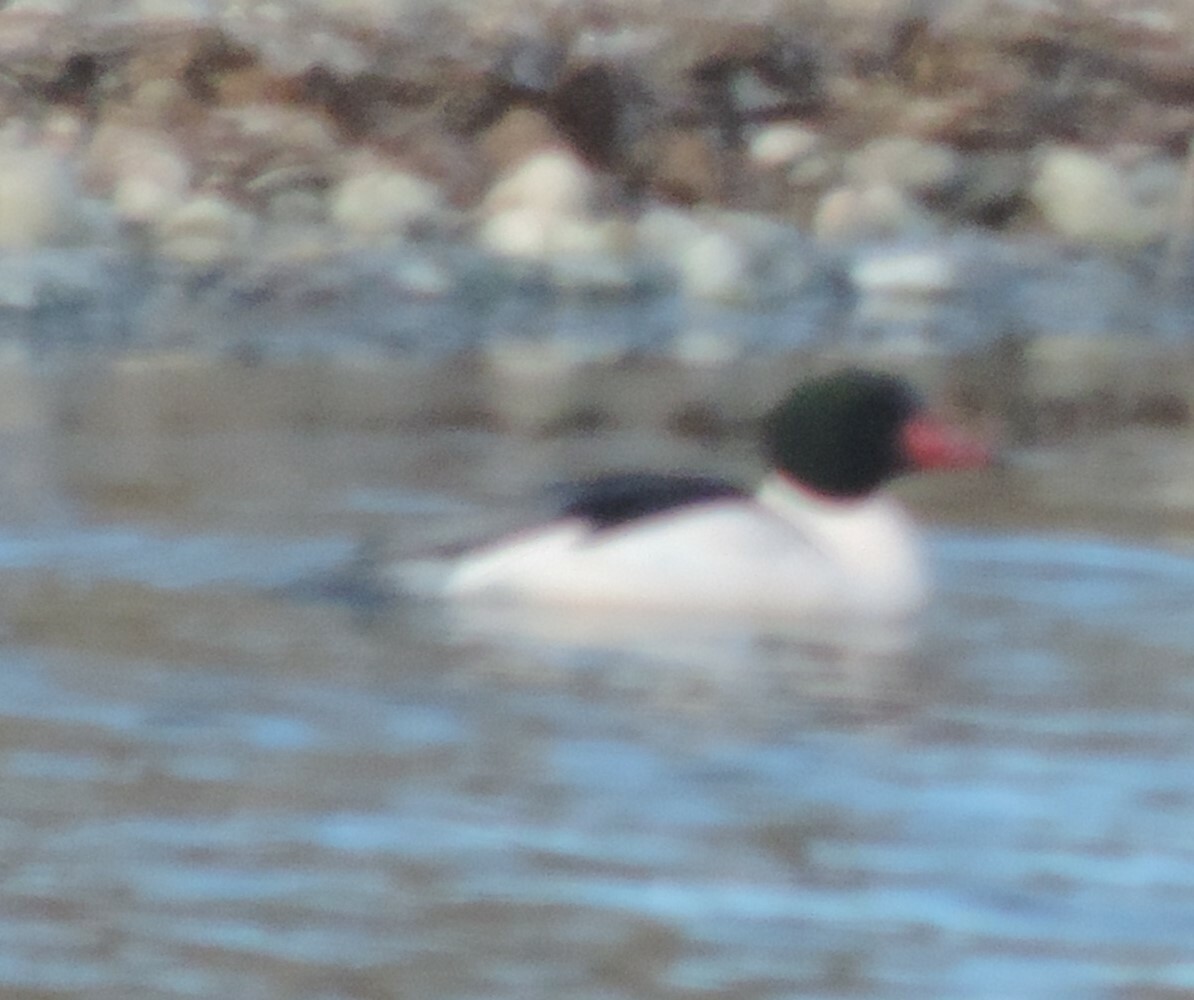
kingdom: Animalia
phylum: Chordata
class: Aves
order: Anseriformes
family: Anatidae
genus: Mergus
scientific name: Mergus merganser
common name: Common merganser
